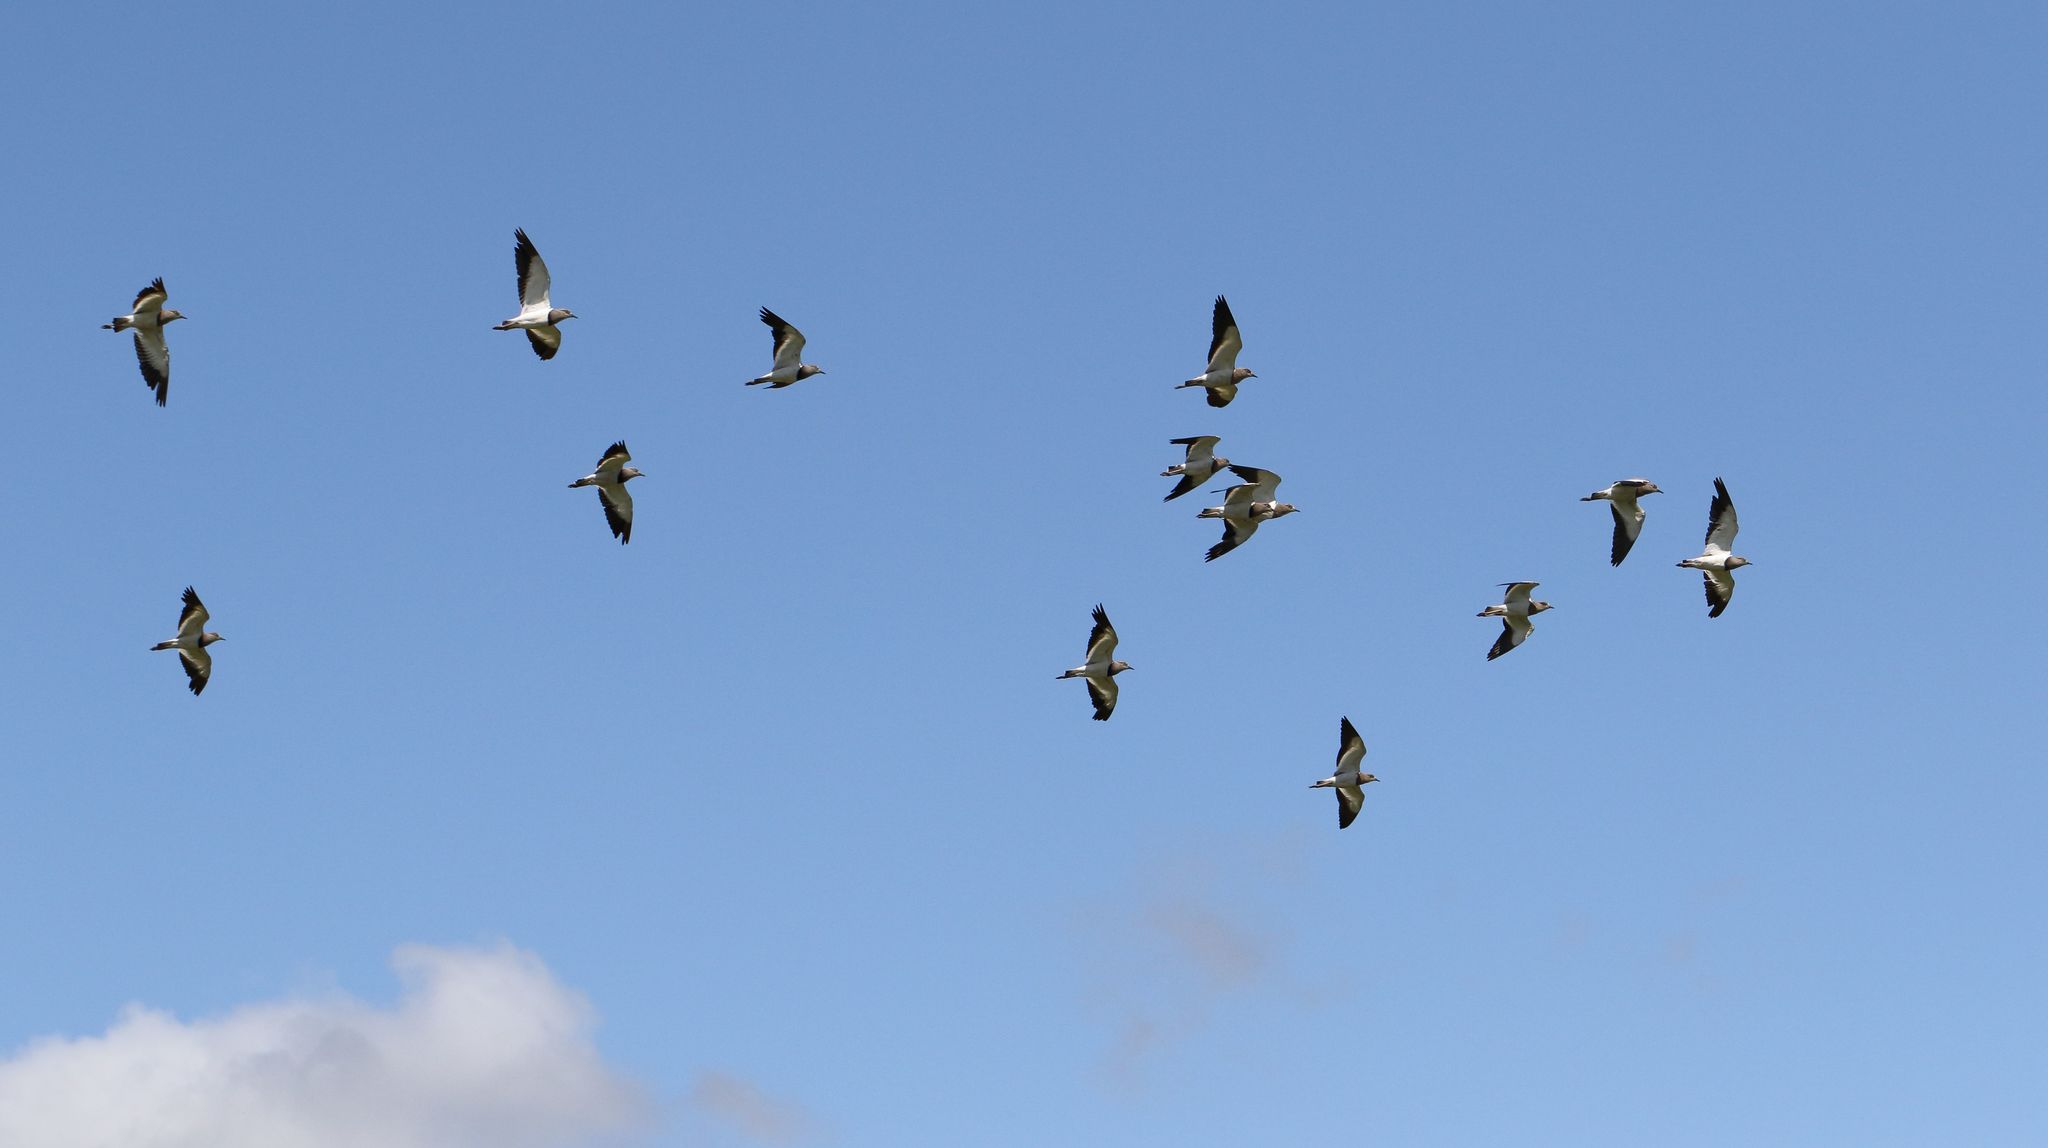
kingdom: Animalia
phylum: Chordata
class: Aves
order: Charadriiformes
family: Charadriidae
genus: Vanellus
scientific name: Vanellus melanopterus
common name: Black-winged lapwing
